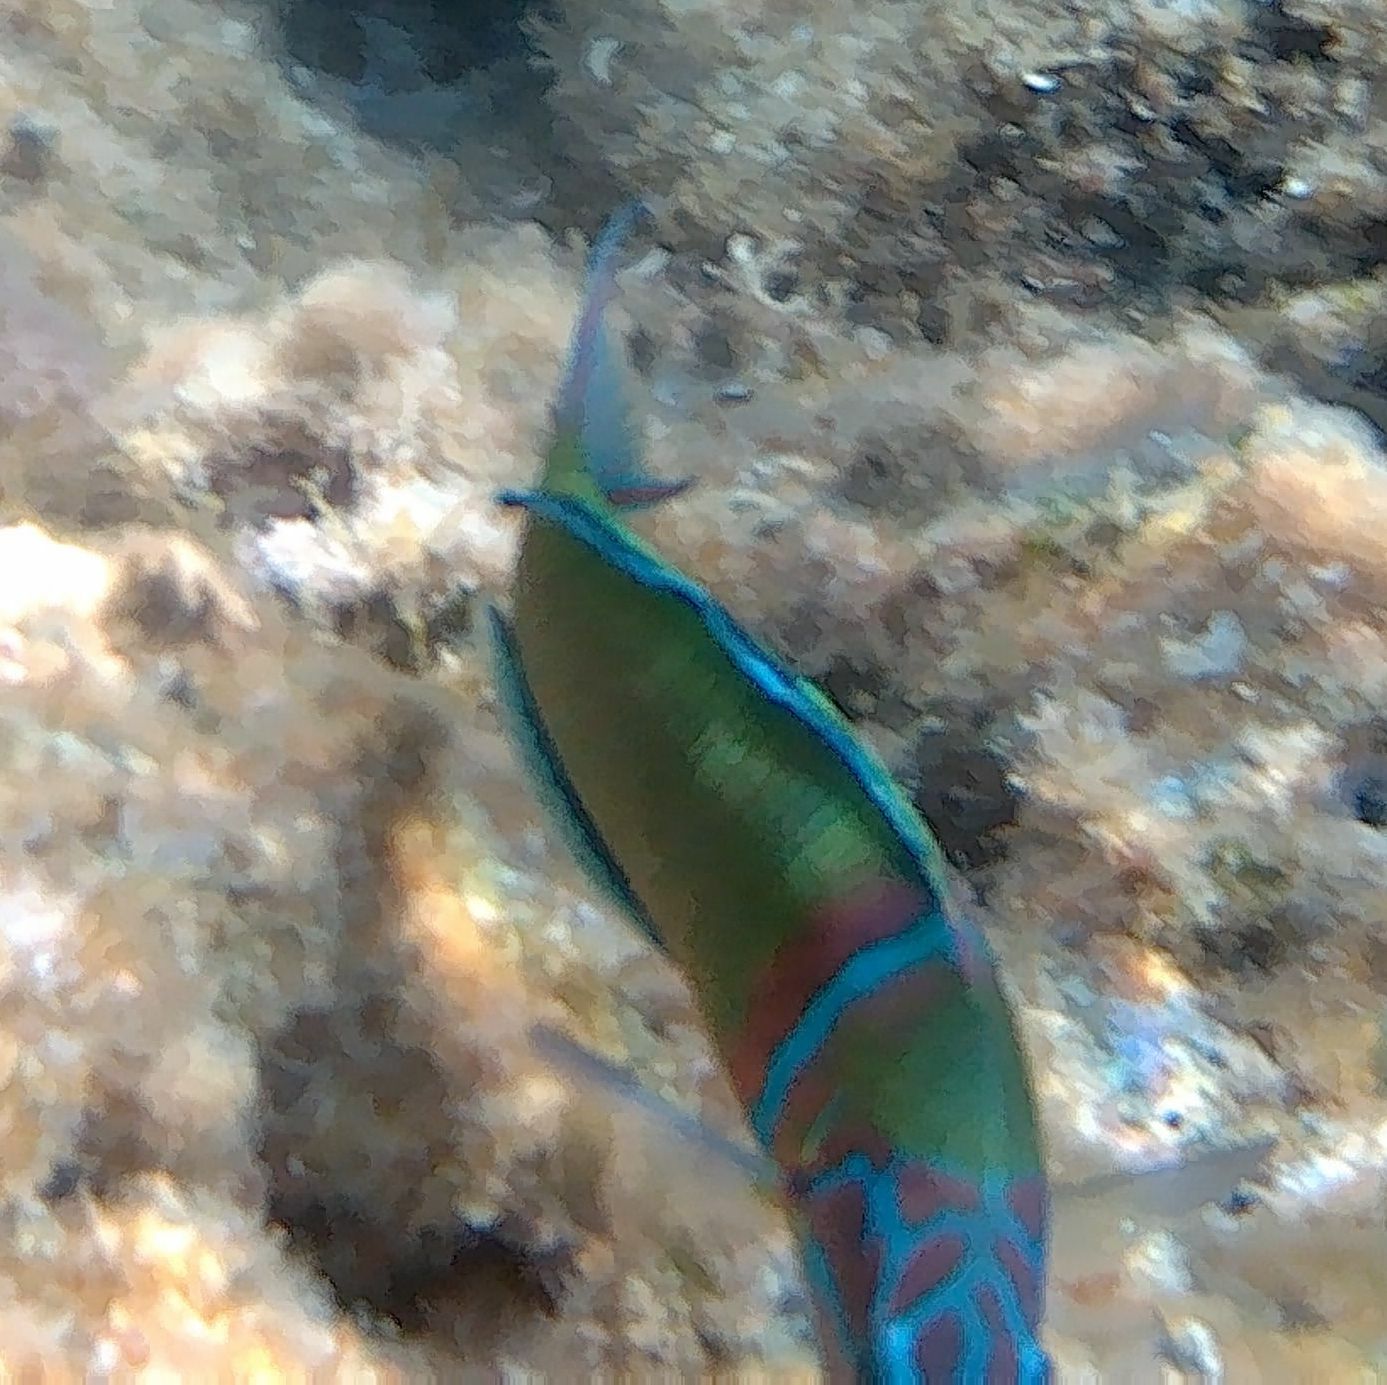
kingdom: Animalia
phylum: Chordata
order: Perciformes
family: Labridae
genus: Thalassoma
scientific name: Thalassoma pavo
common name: Ornate wrasse
